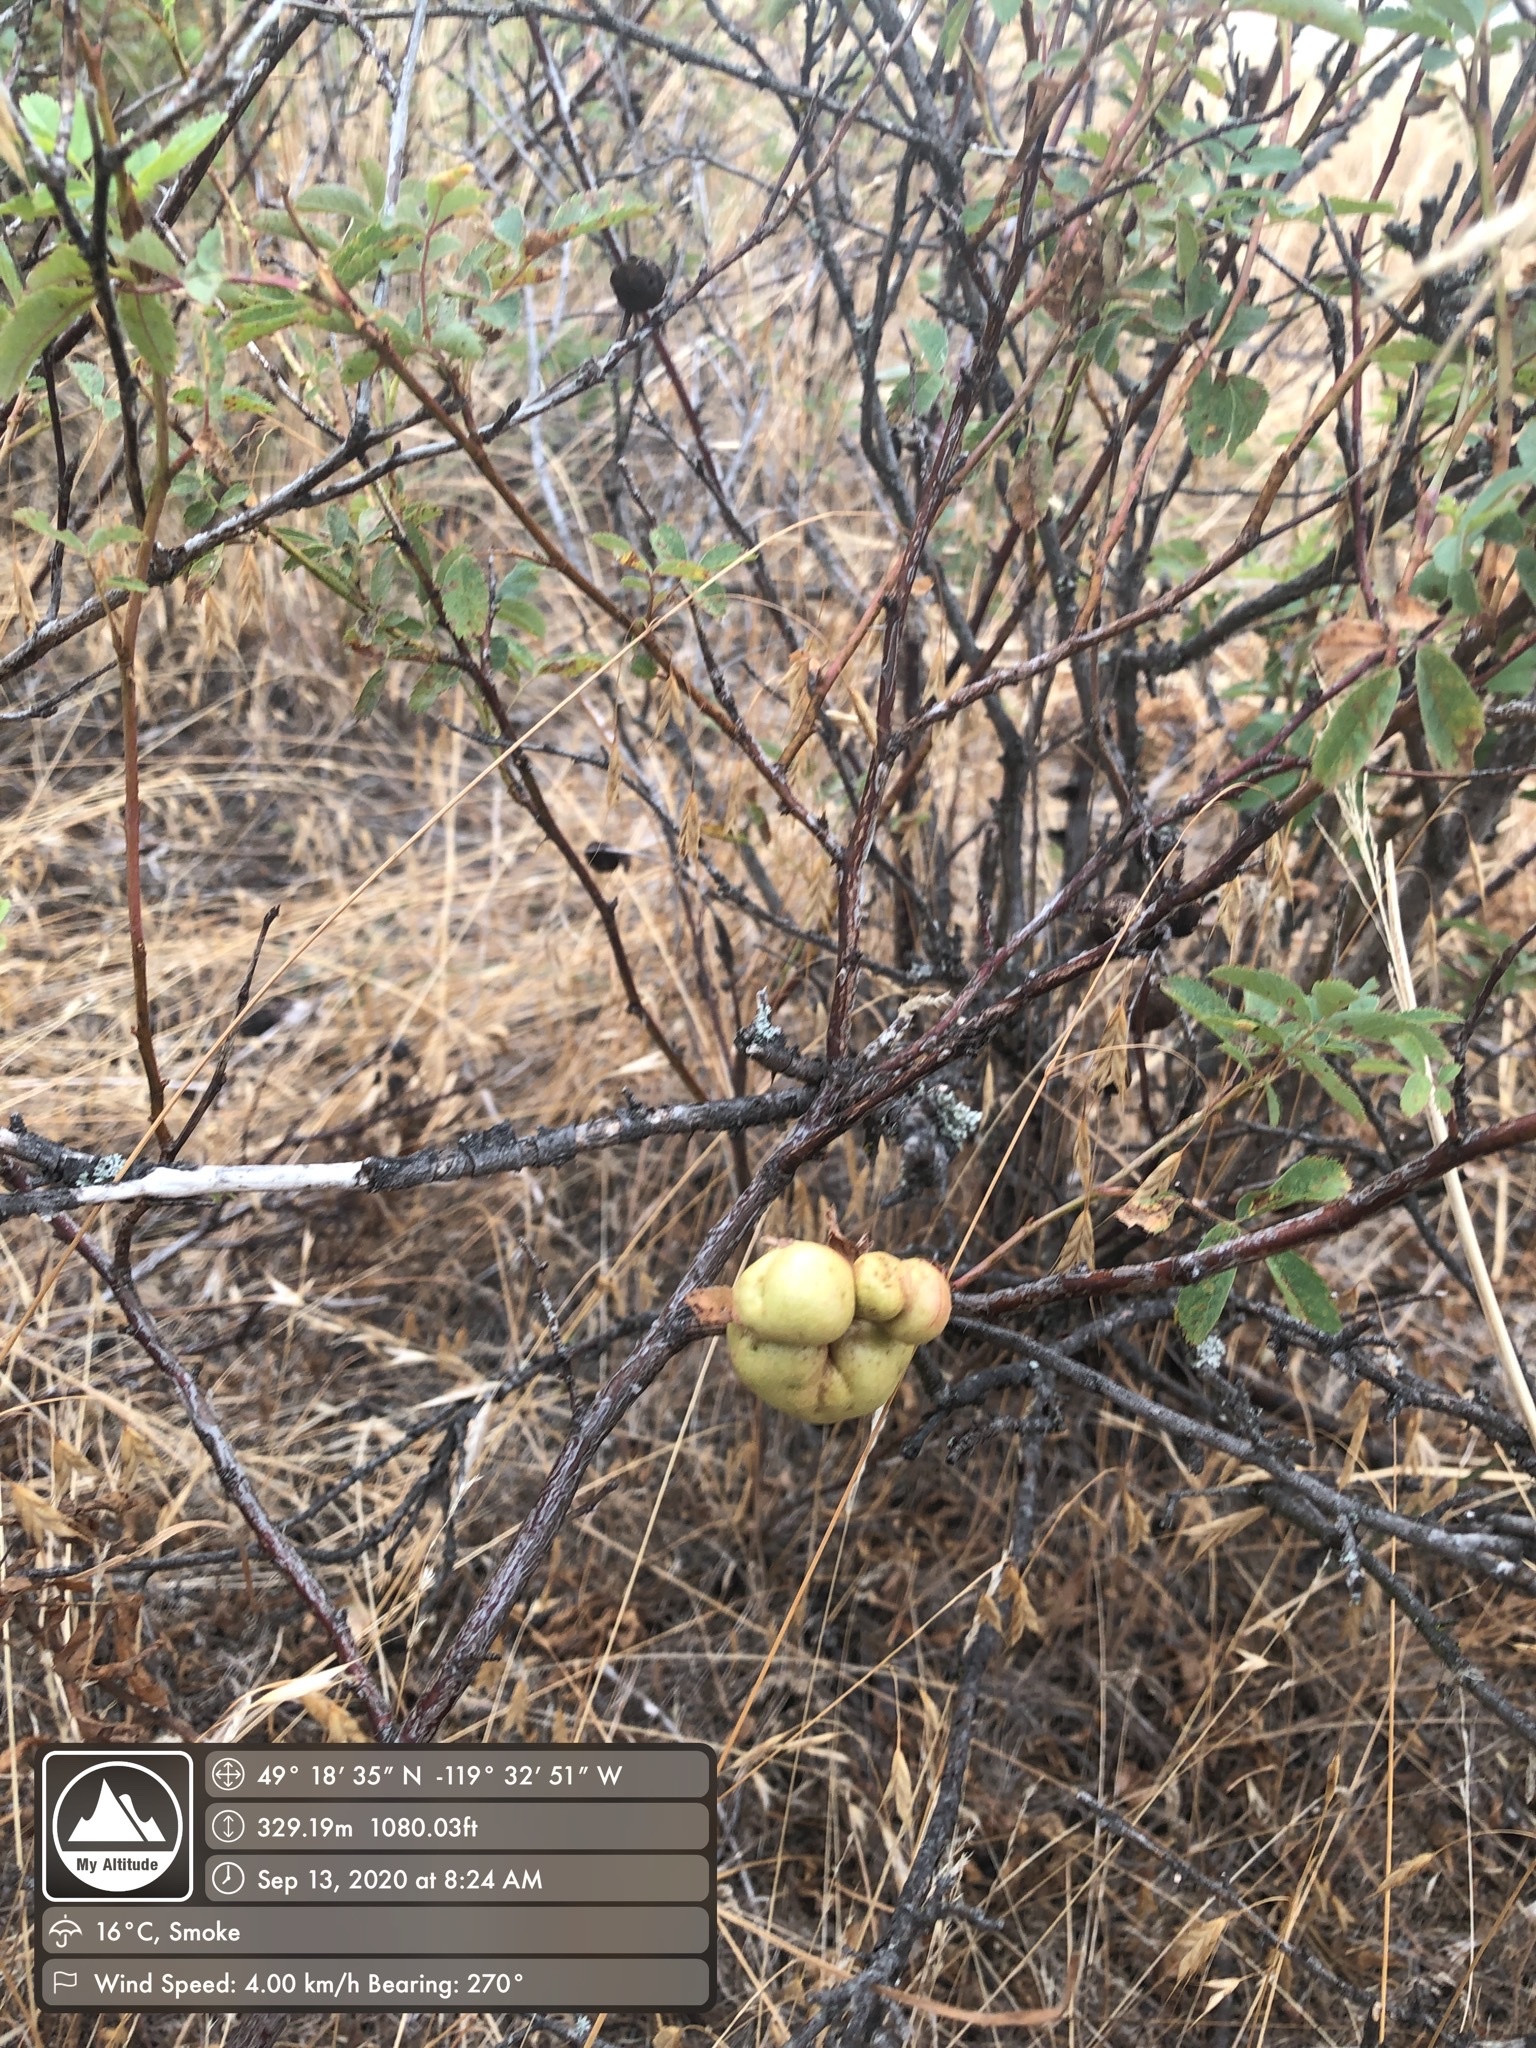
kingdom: Animalia
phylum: Arthropoda
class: Insecta
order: Hymenoptera
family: Cynipidae
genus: Diplolepis
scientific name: Diplolepis variabilis
